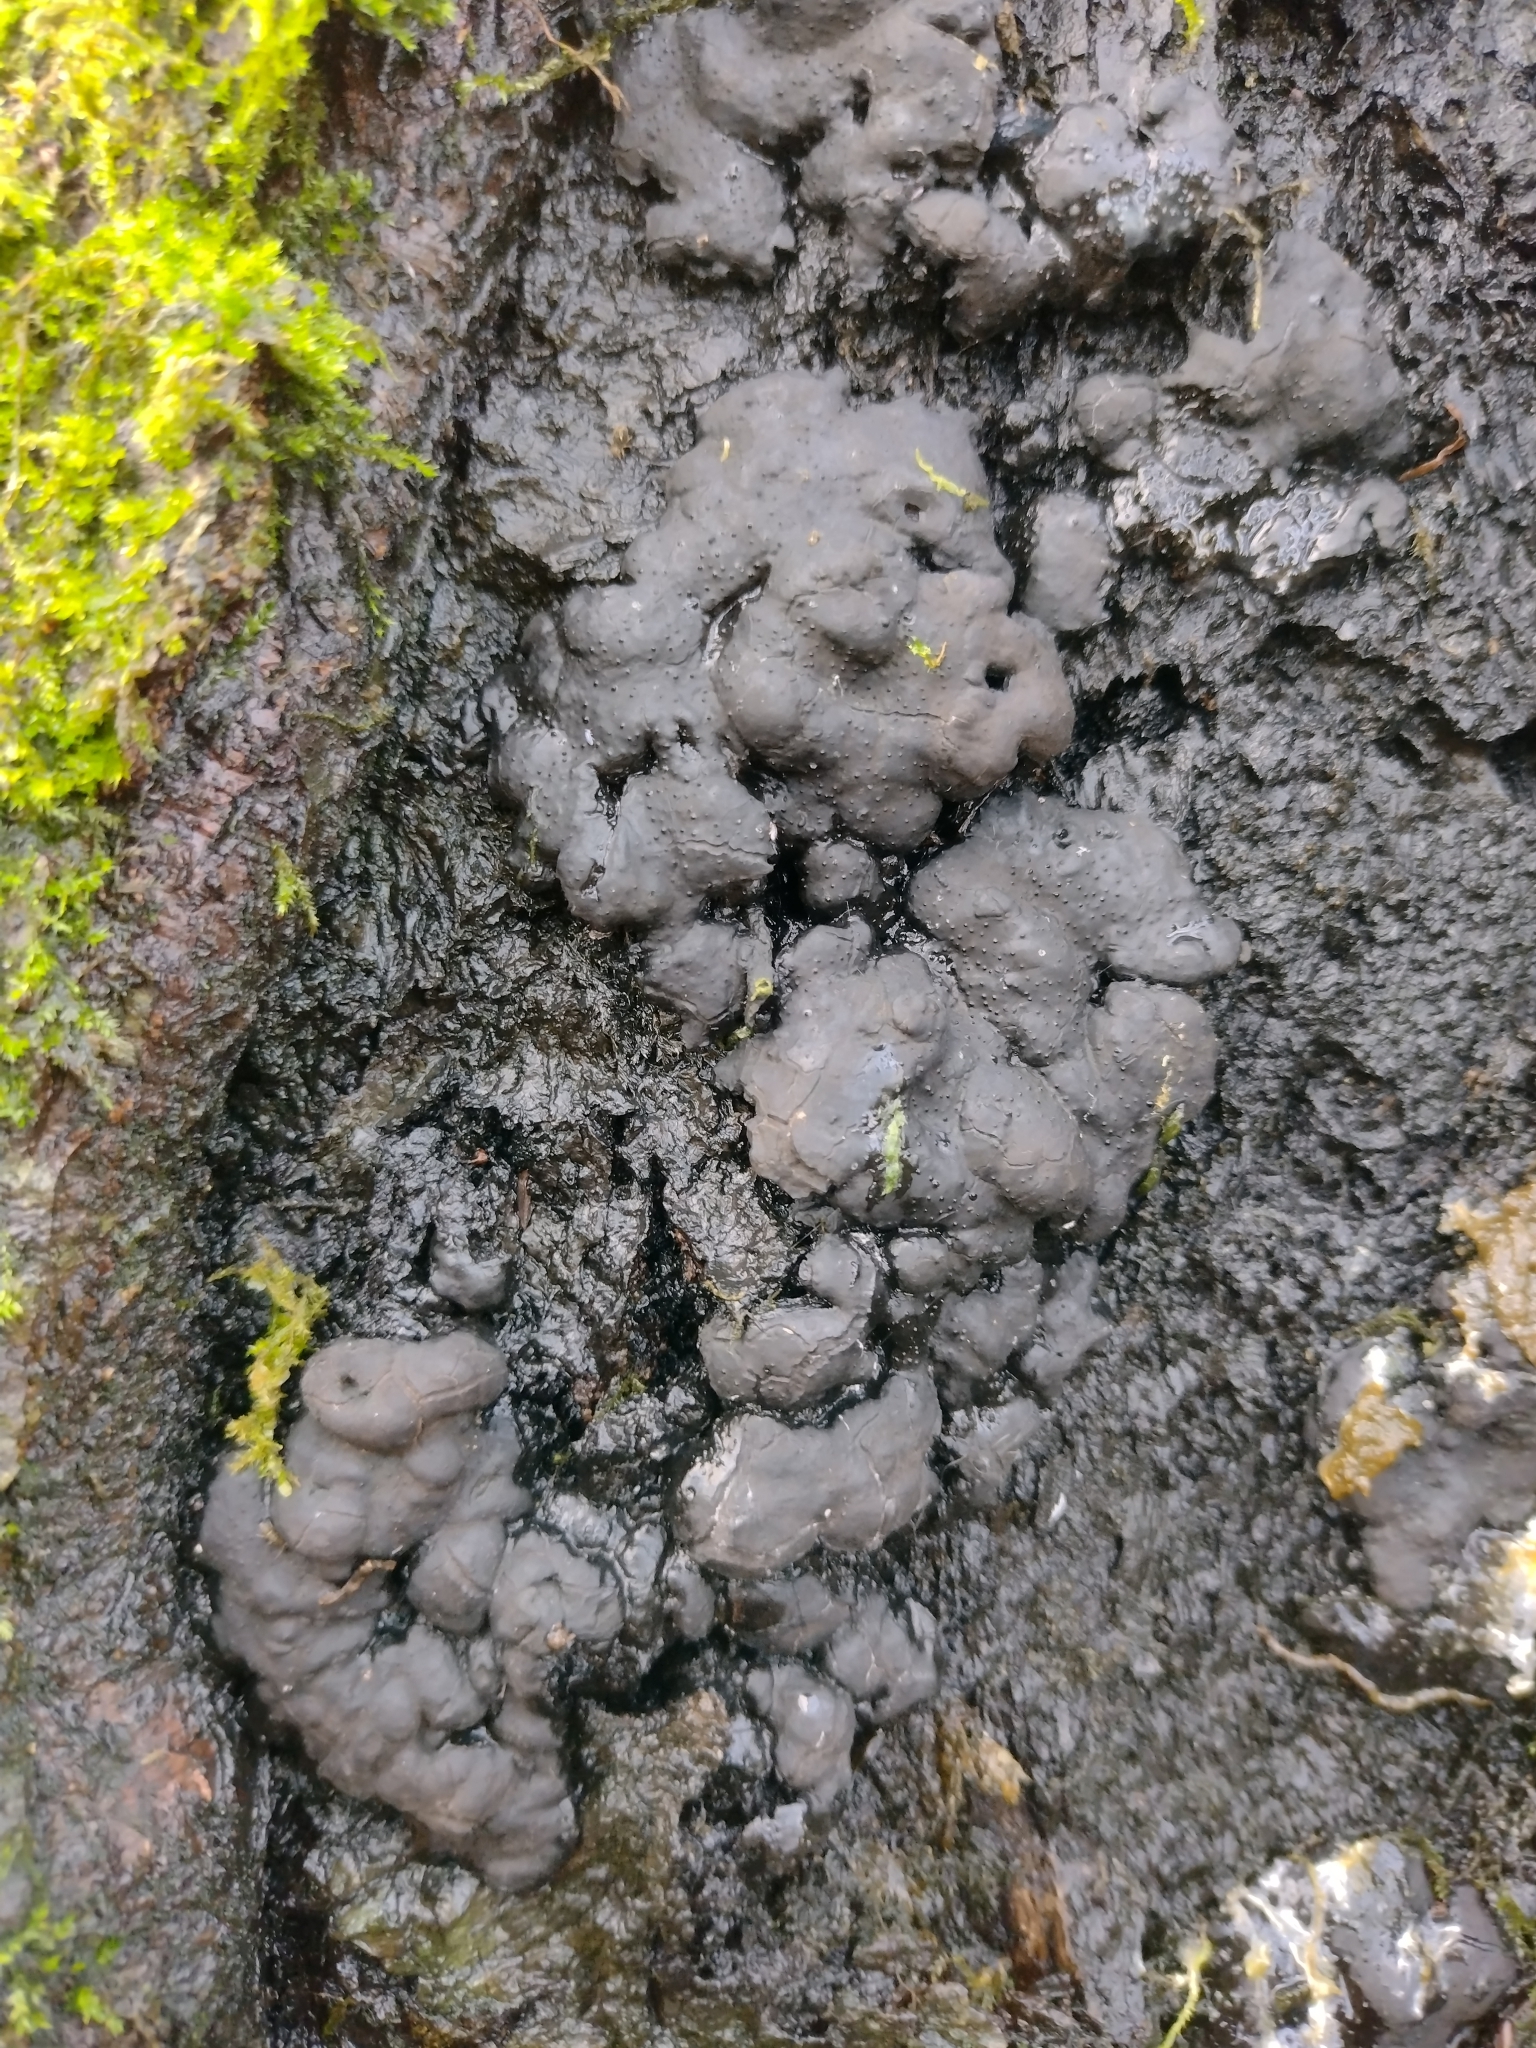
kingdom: Fungi
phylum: Ascomycota
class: Sordariomycetes
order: Xylariales
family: Xylariaceae
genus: Kretzschmaria
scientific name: Kretzschmaria deusta
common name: Brittle cinder
